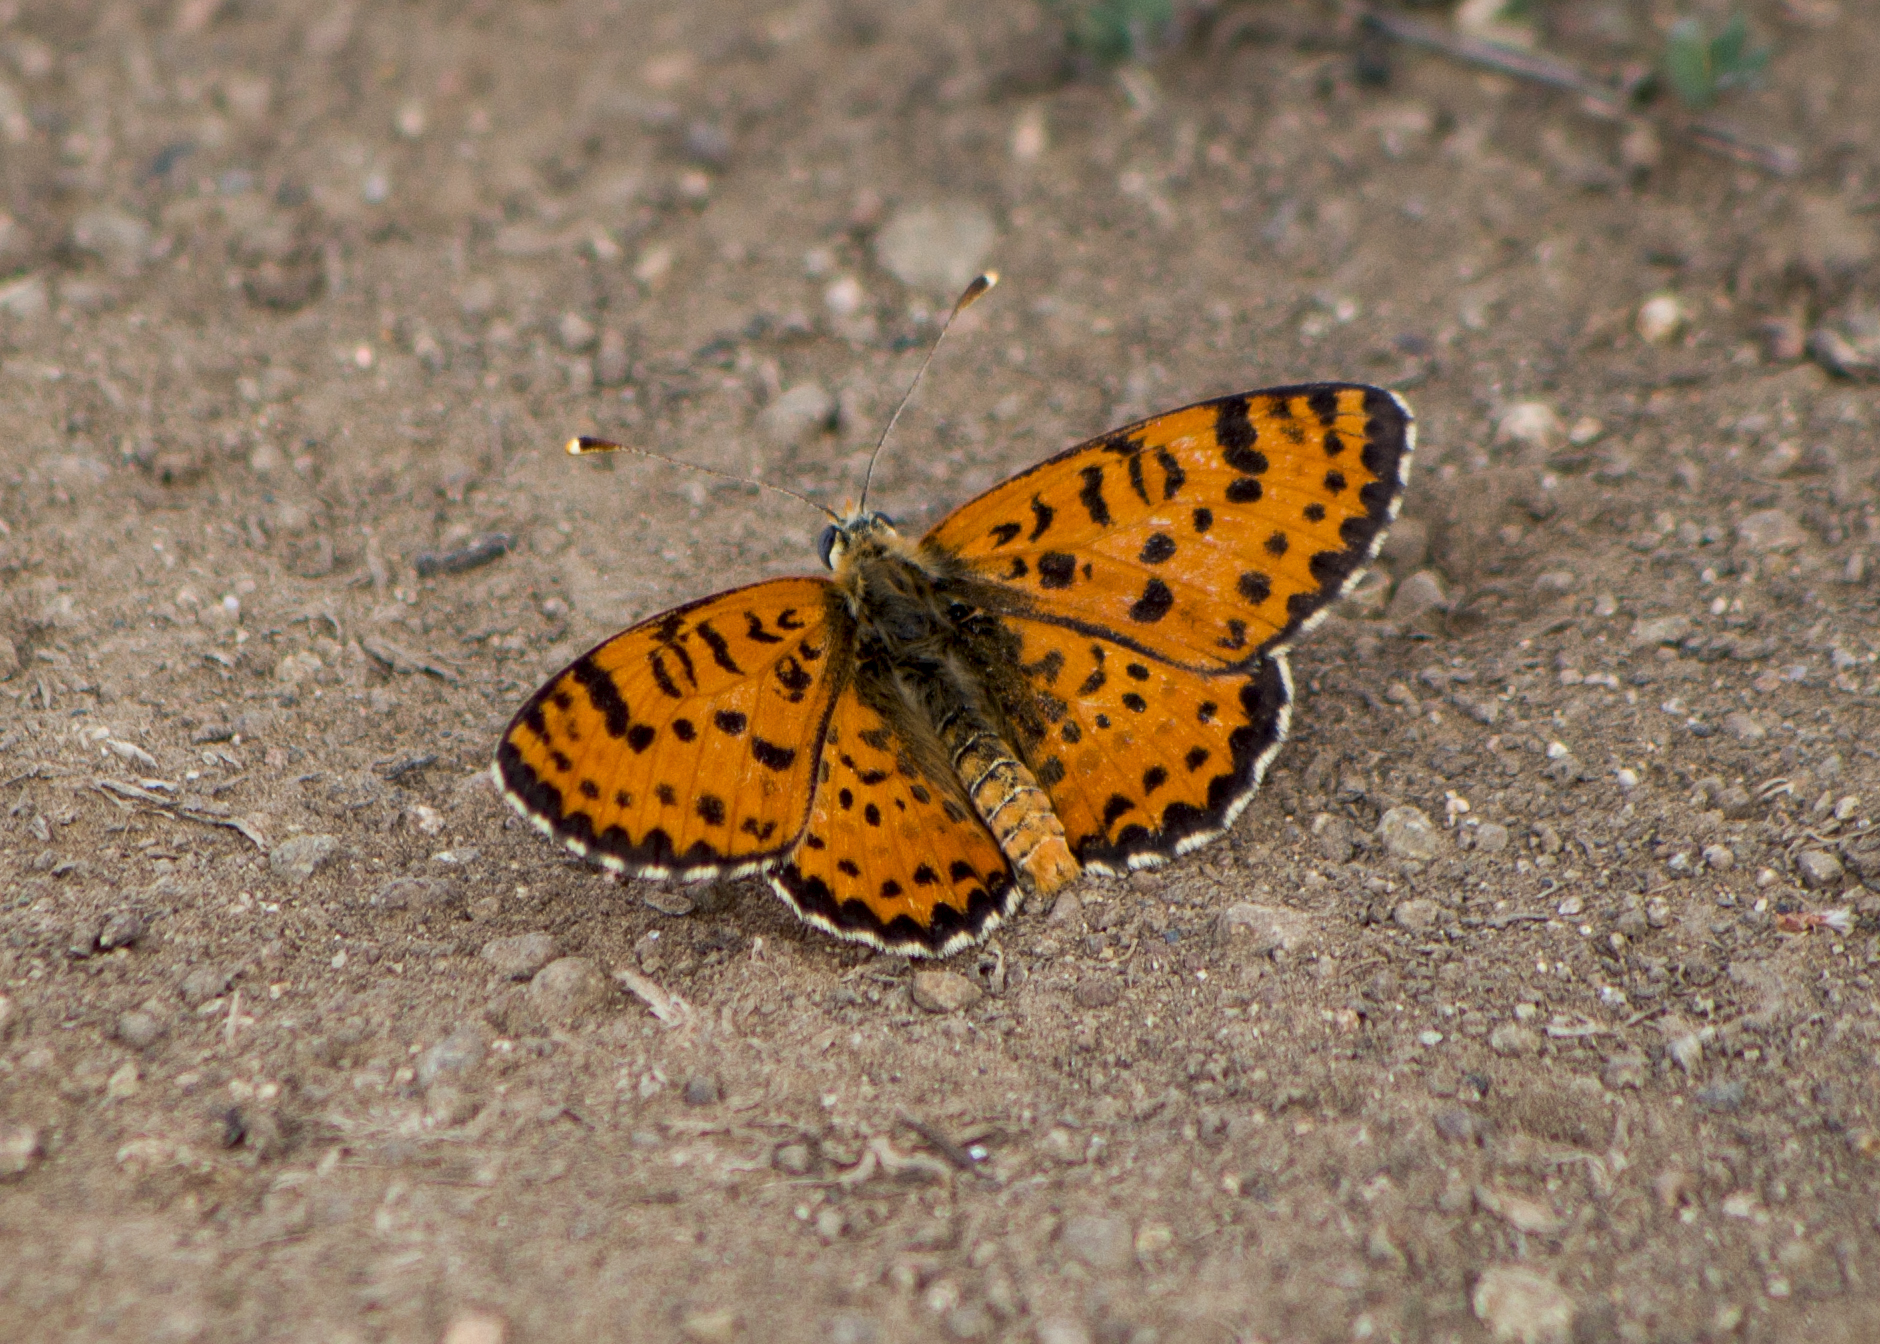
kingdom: Animalia
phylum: Arthropoda
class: Insecta
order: Lepidoptera
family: Nymphalidae
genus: Melitaea
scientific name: Melitaea didyma
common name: Spotted fritillary
